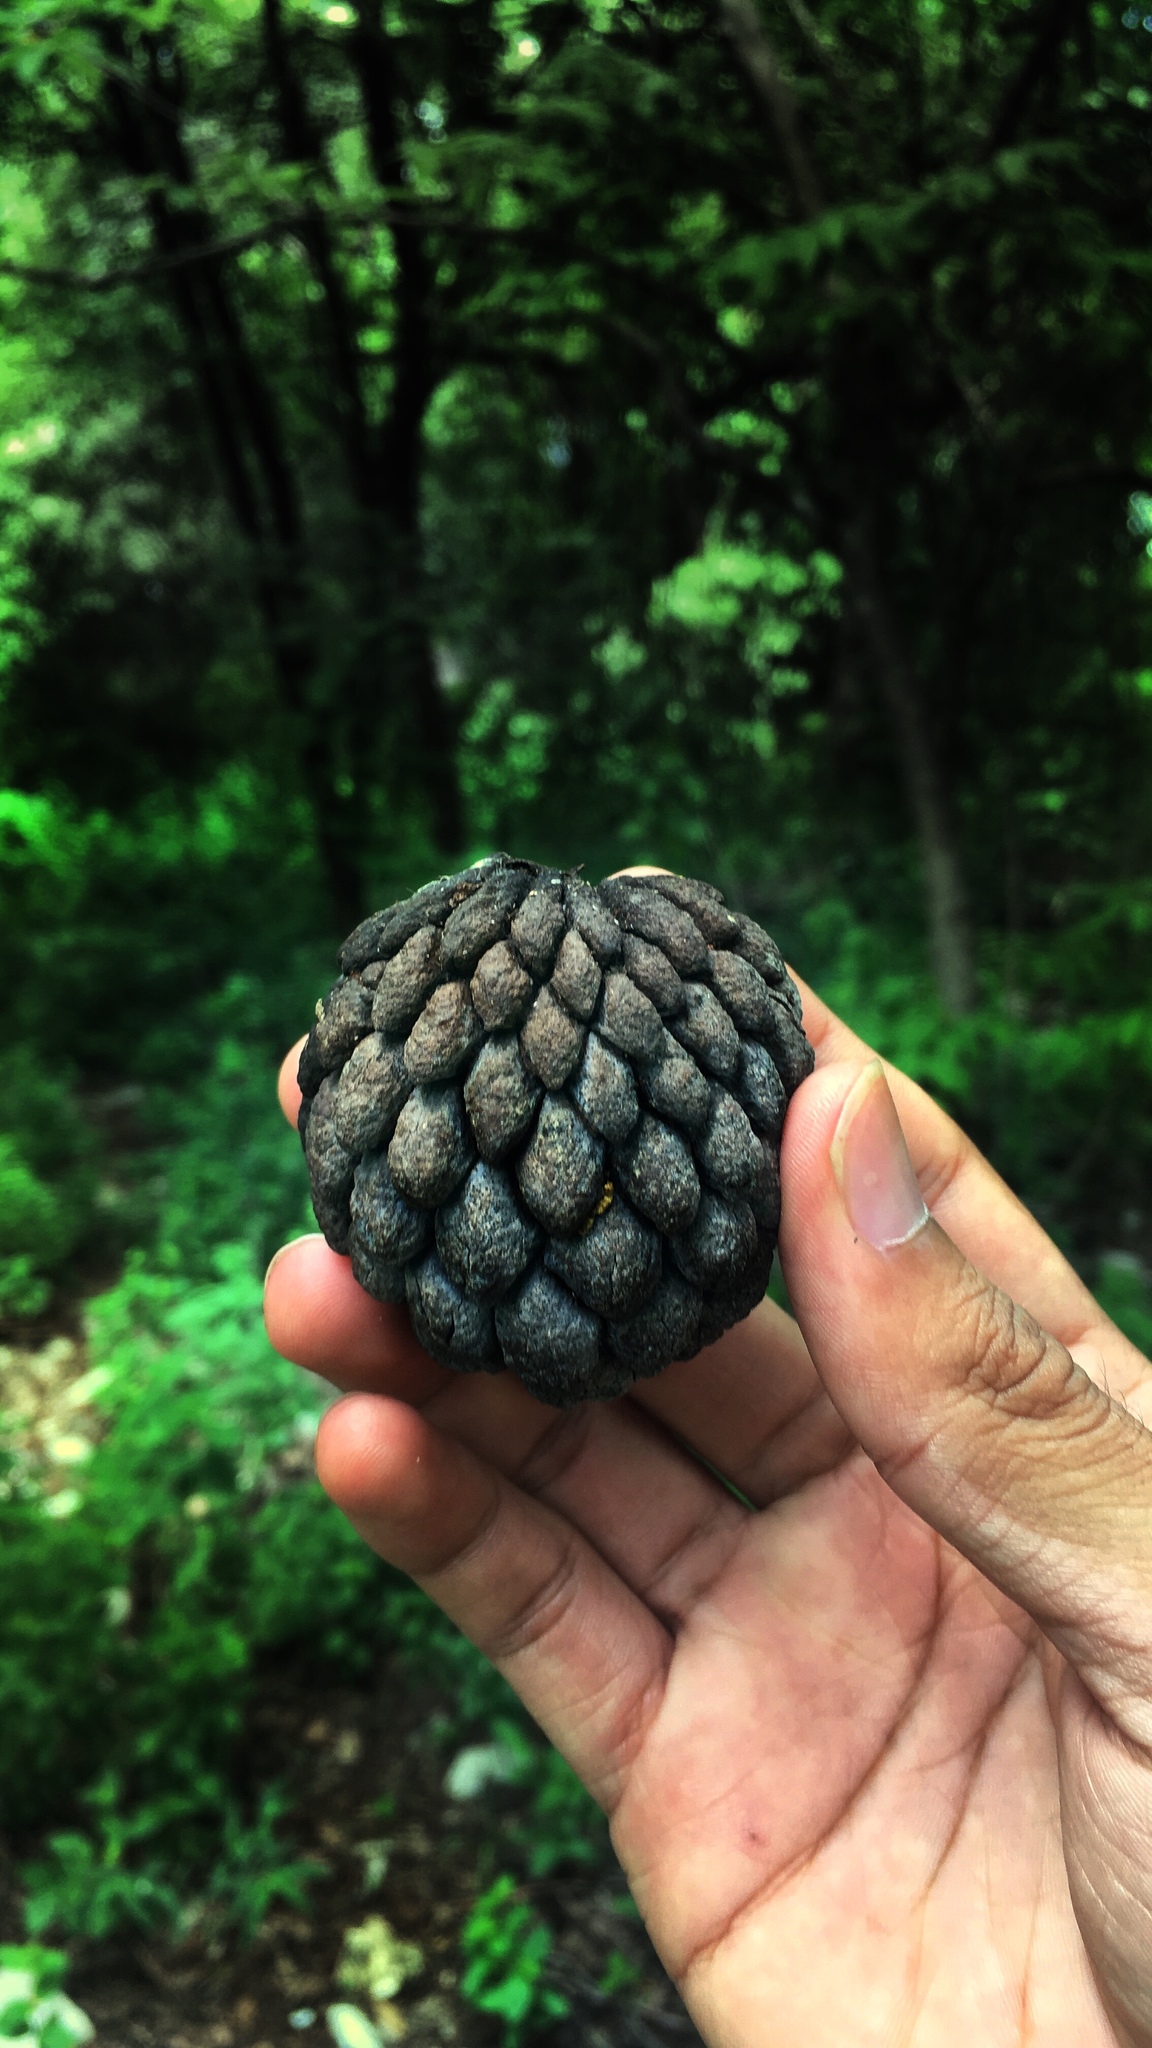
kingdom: Plantae
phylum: Tracheophyta
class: Magnoliopsida
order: Magnoliales
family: Annonaceae
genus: Annona
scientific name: Annona squamosa
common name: Custard-apple
